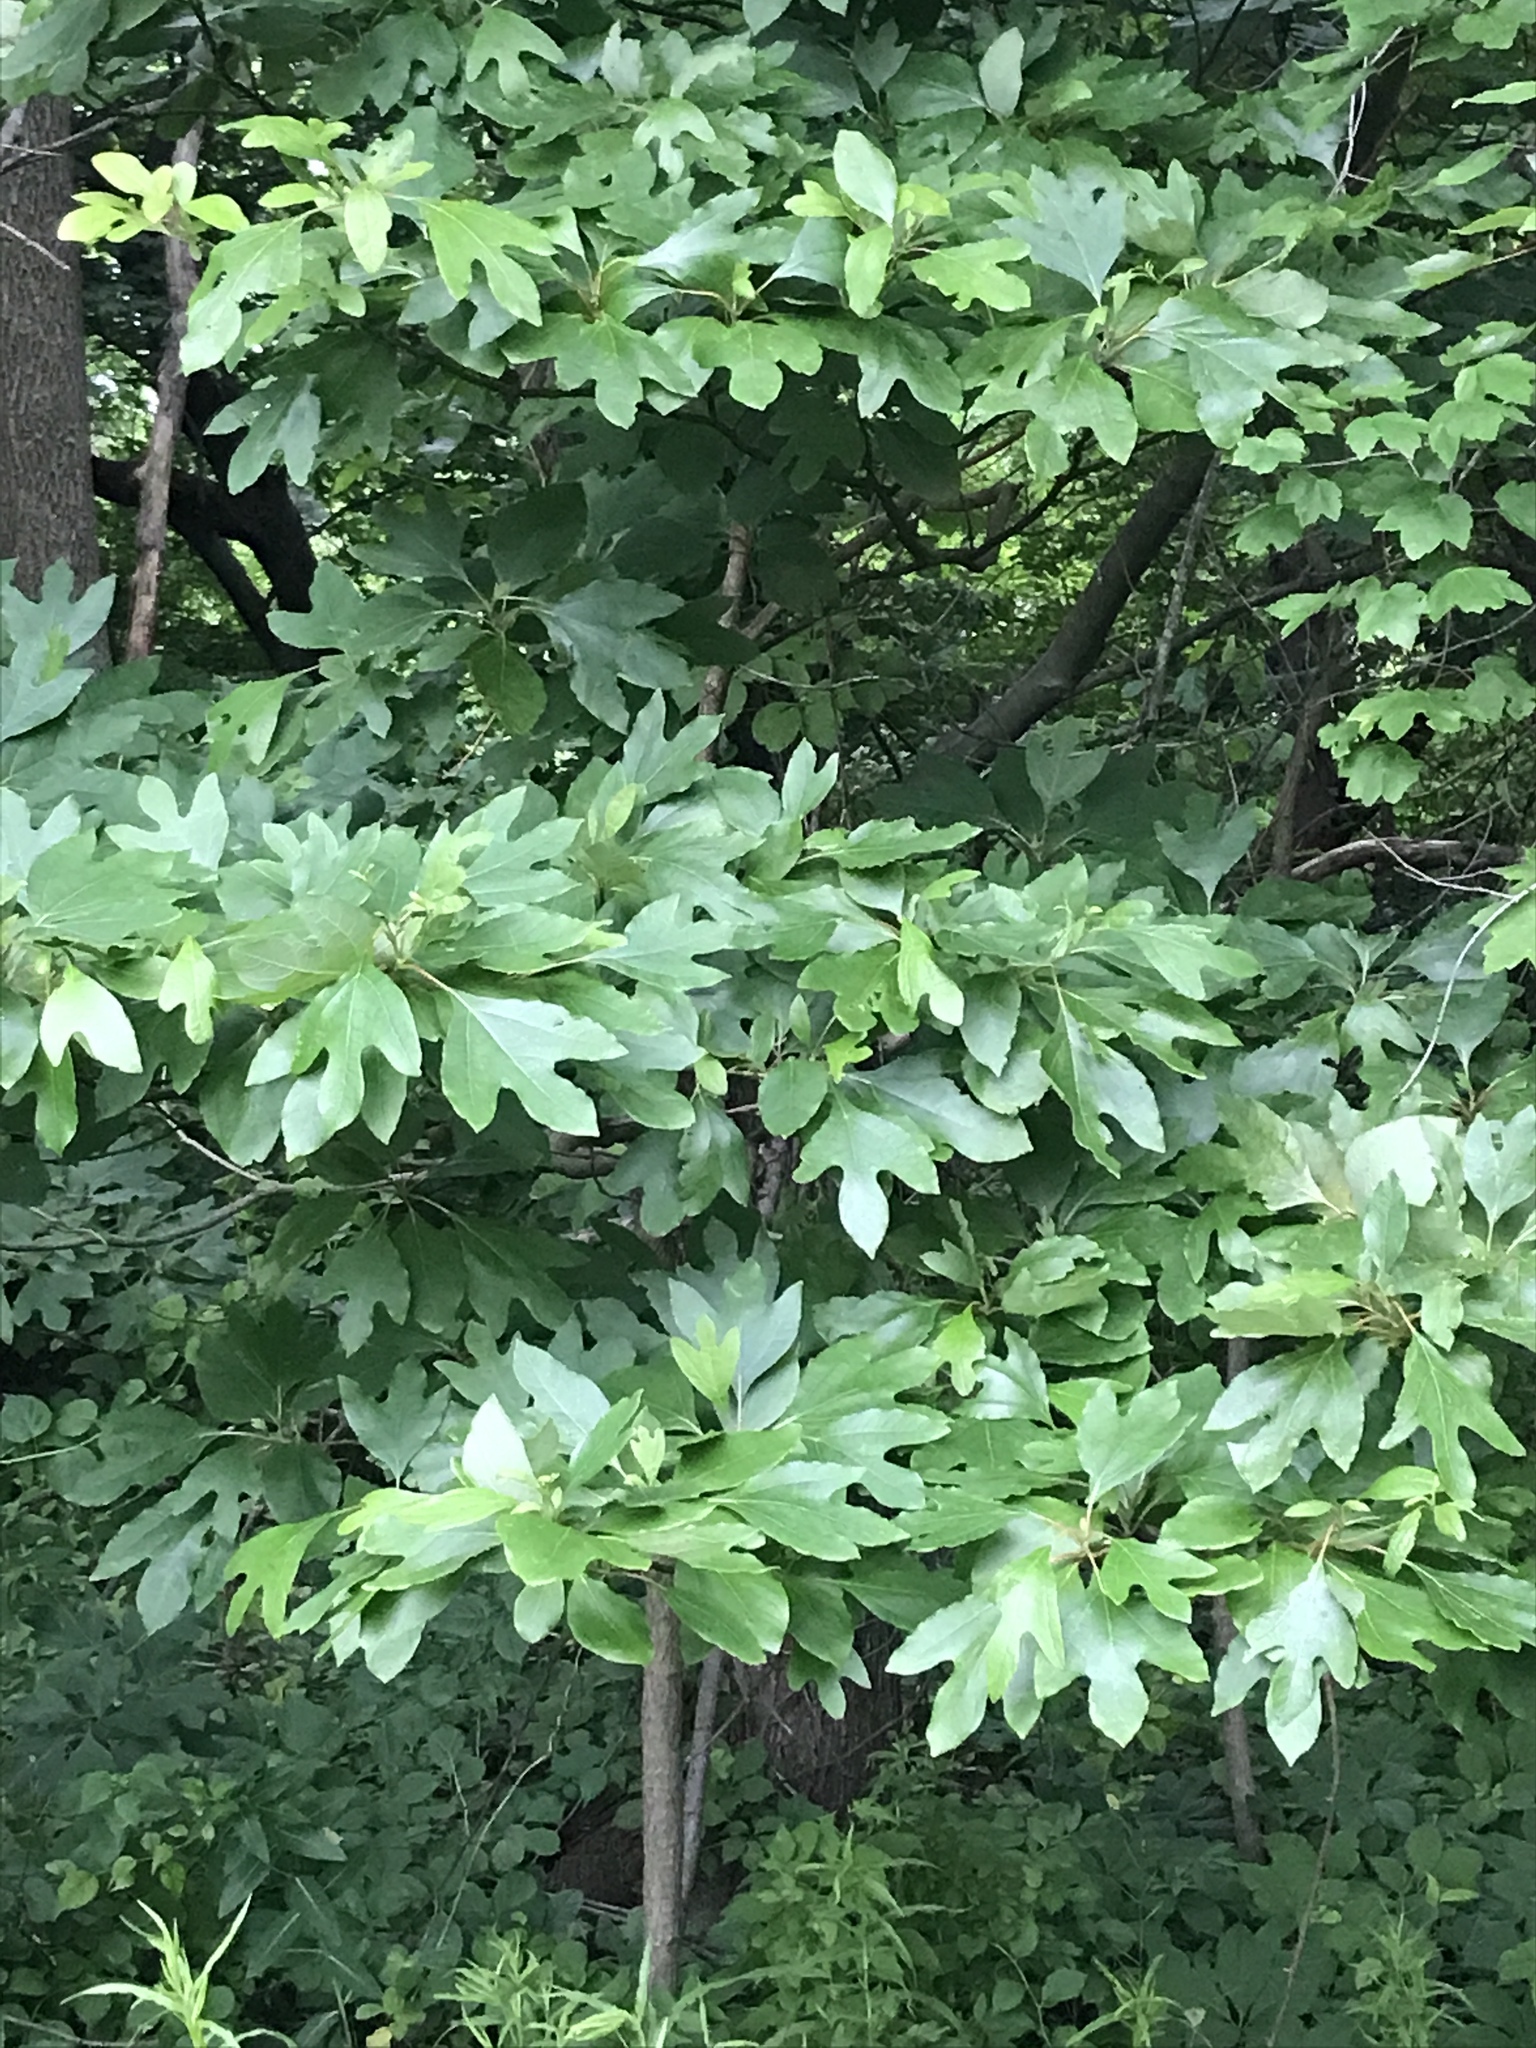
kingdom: Plantae
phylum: Tracheophyta
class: Magnoliopsida
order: Laurales
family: Lauraceae
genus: Sassafras
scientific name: Sassafras albidum
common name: Sassafras
